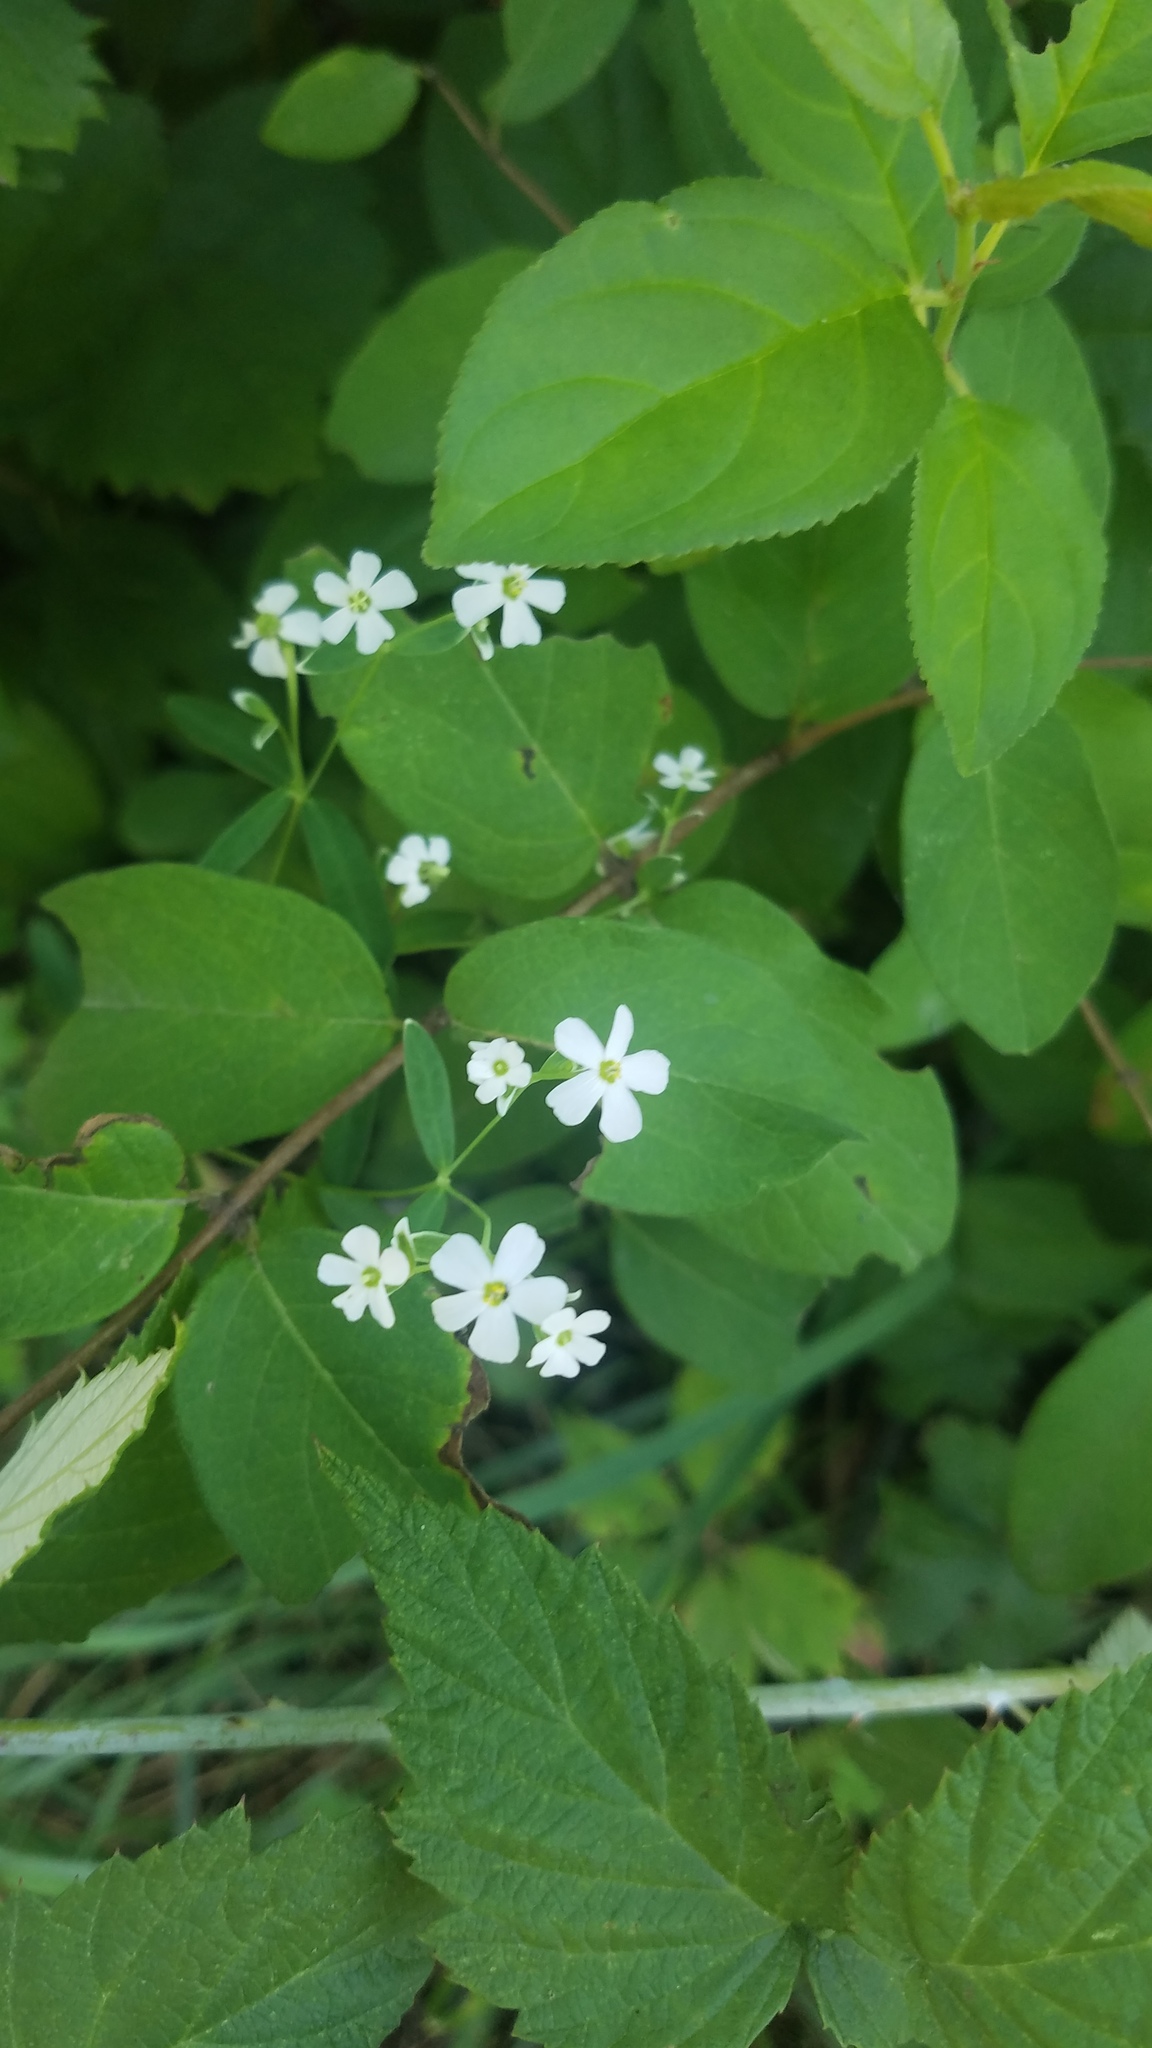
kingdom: Plantae
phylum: Tracheophyta
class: Magnoliopsida
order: Malpighiales
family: Euphorbiaceae
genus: Euphorbia
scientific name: Euphorbia corollata
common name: Flowering spurge
